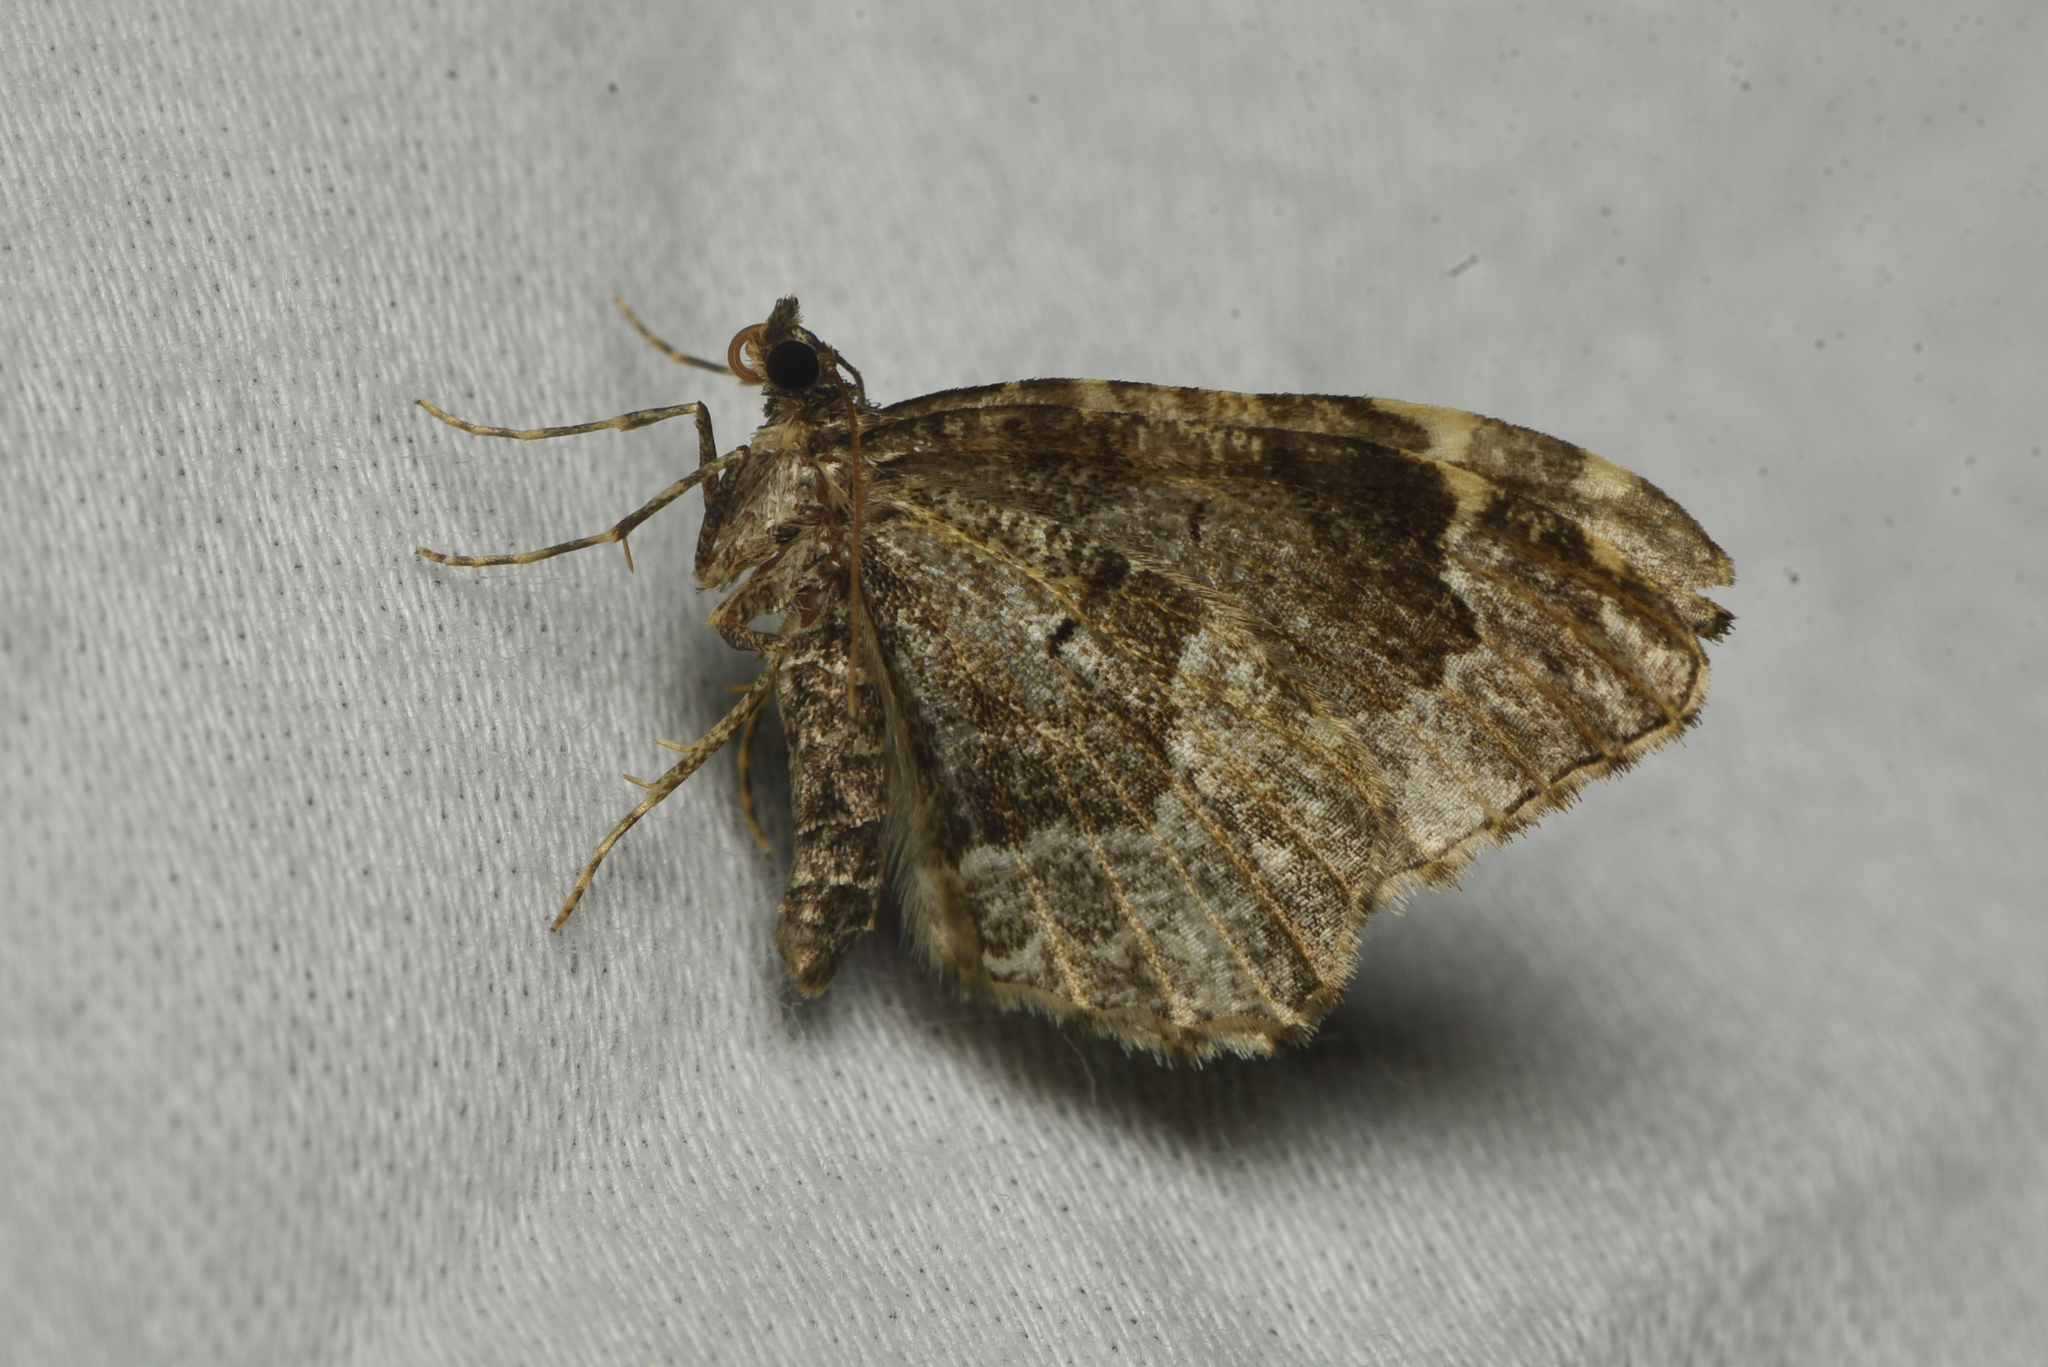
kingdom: Animalia
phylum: Arthropoda
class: Insecta
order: Lepidoptera
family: Geometridae
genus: Ceratodalia
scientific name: Ceratodalia gueneata
